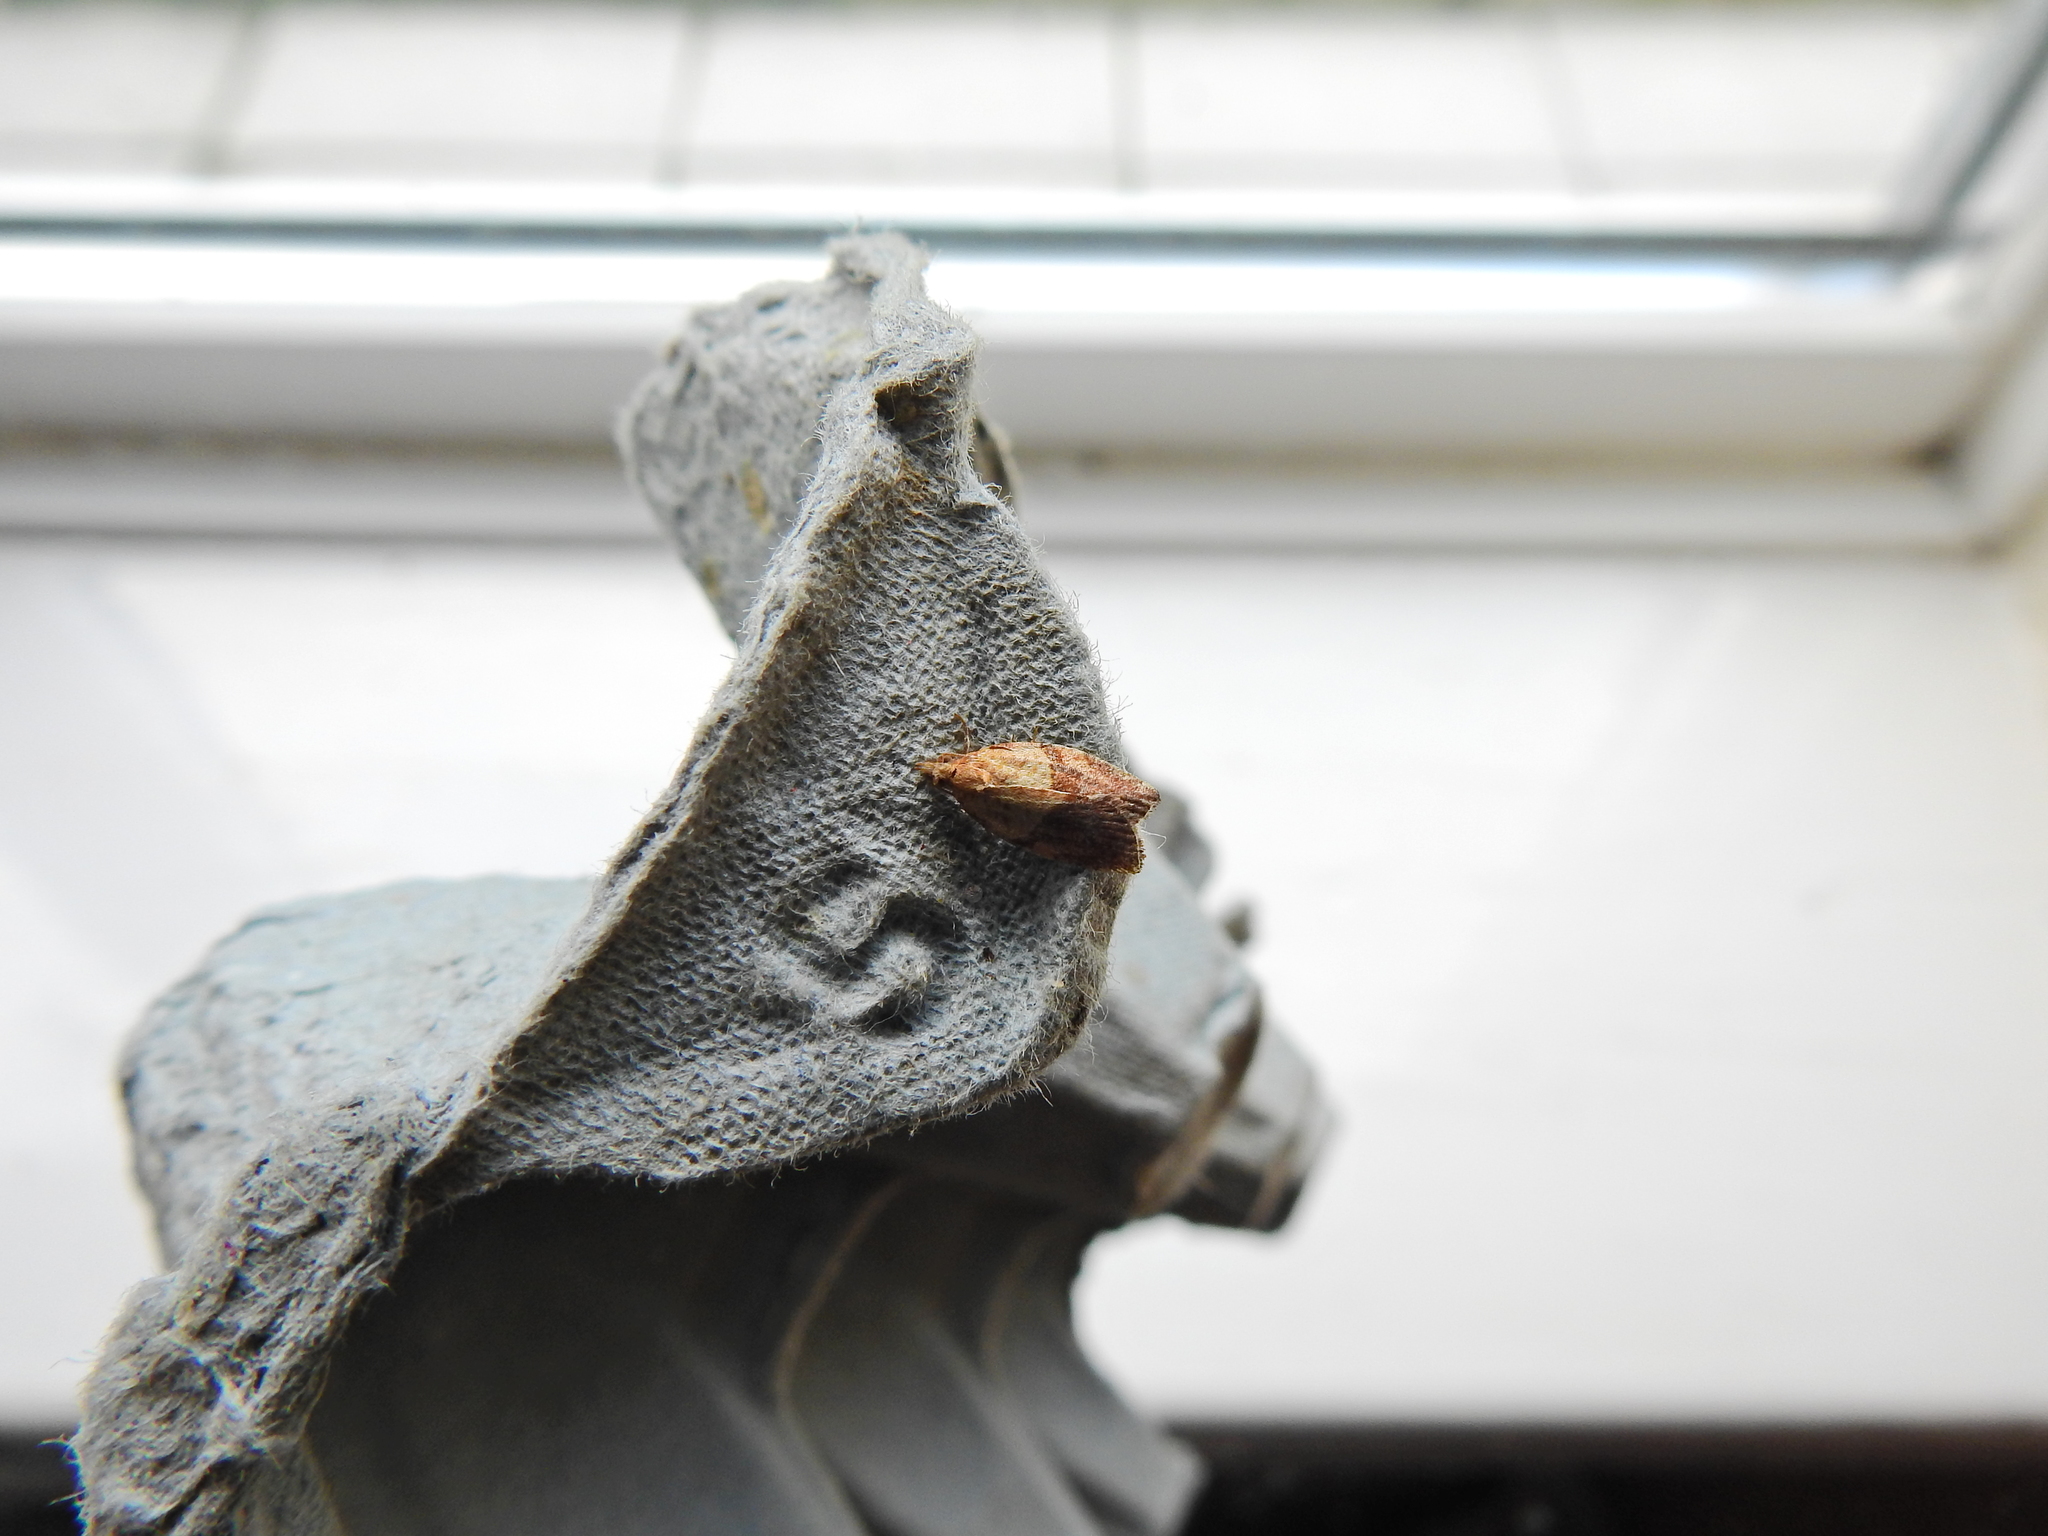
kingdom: Animalia
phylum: Arthropoda
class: Insecta
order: Lepidoptera
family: Tortricidae
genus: Epiphyas
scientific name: Epiphyas postvittana
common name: Light brown apple moth
